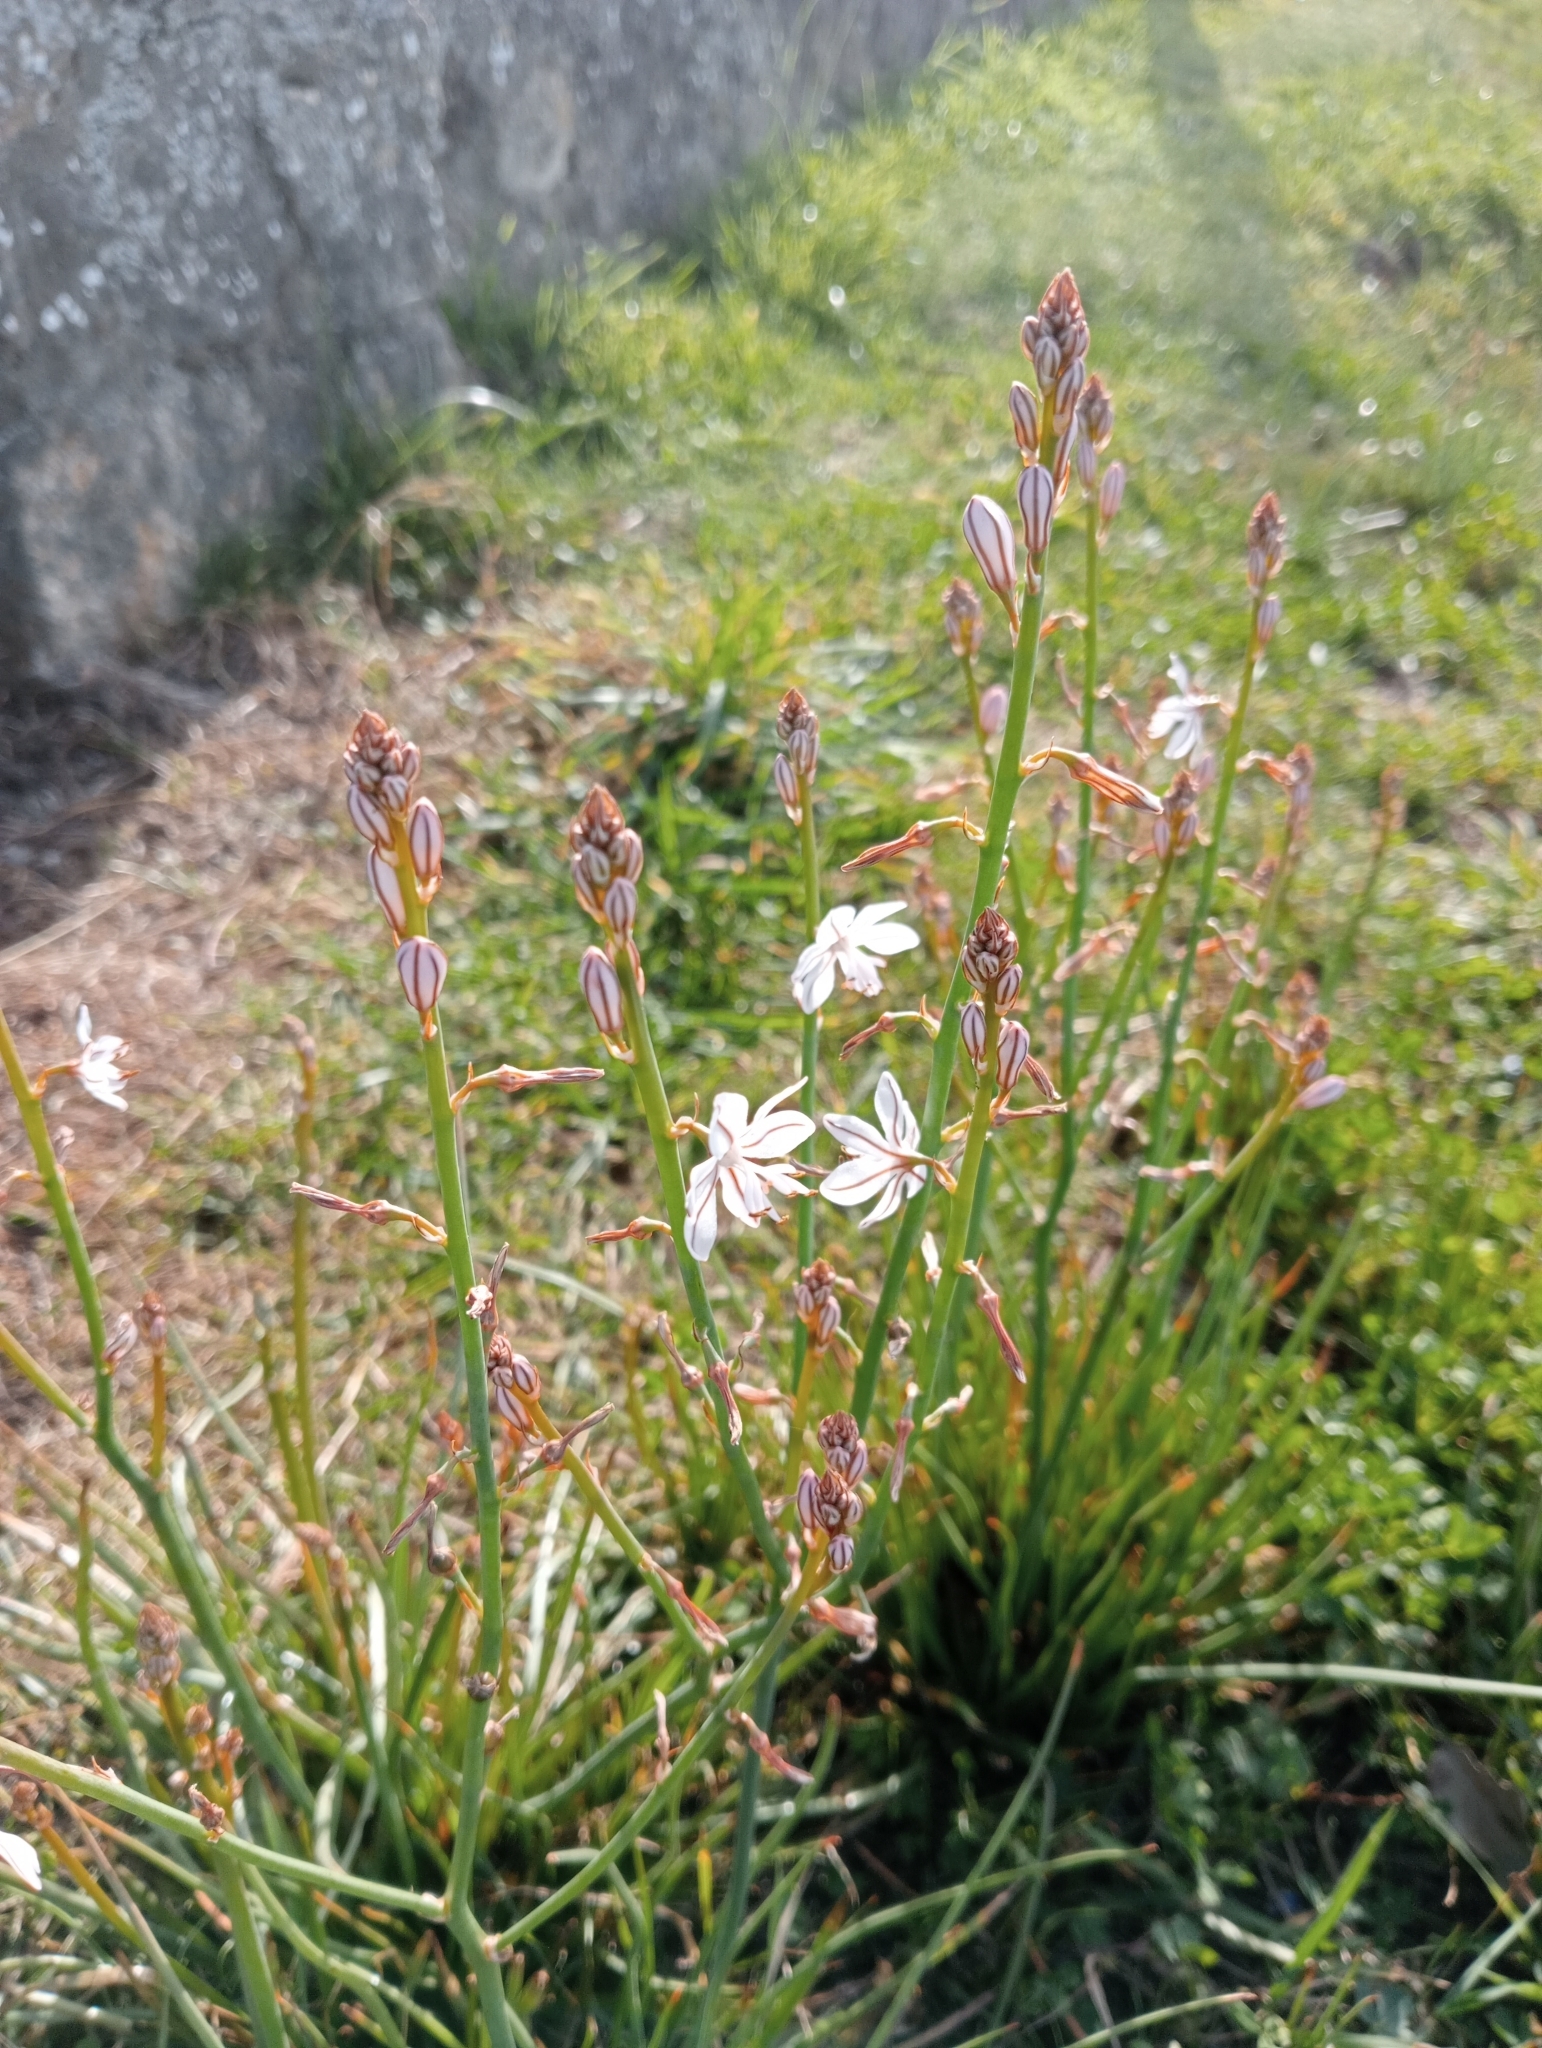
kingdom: Plantae
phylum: Tracheophyta
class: Liliopsida
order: Asparagales
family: Asphodelaceae
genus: Asphodelus
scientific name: Asphodelus fistulosus
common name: Onionweed
